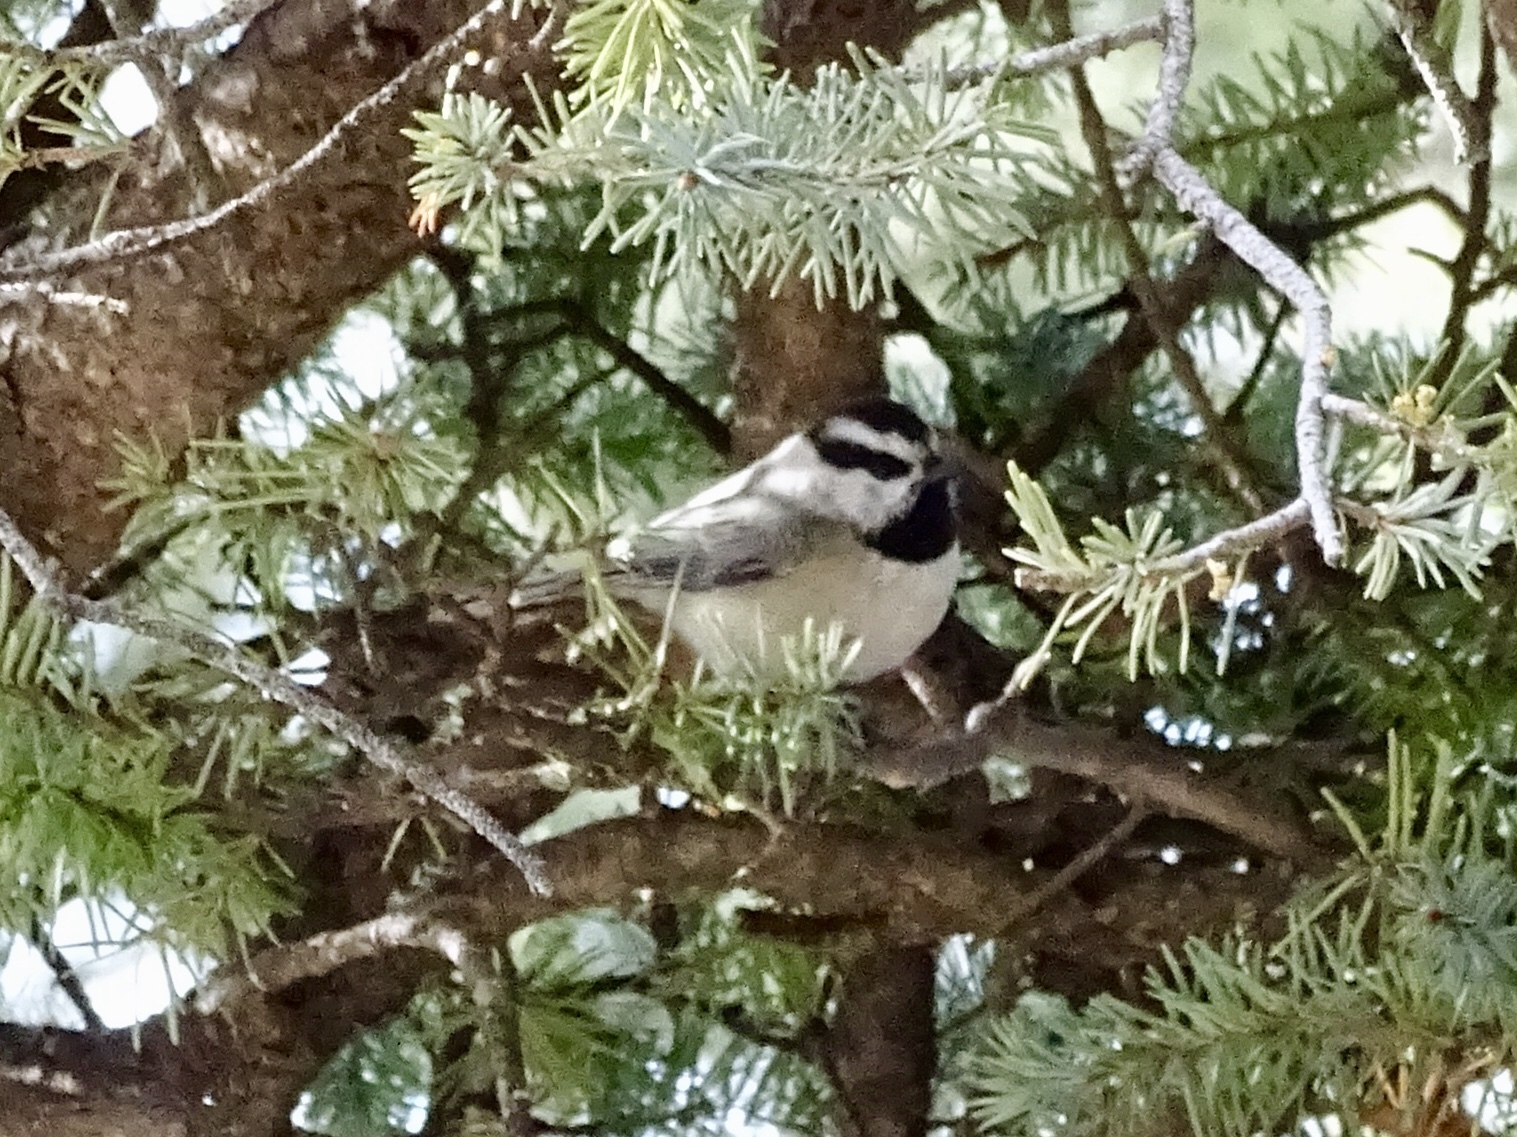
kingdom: Animalia
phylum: Chordata
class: Aves
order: Passeriformes
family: Paridae
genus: Poecile
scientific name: Poecile gambeli
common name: Mountain chickadee
